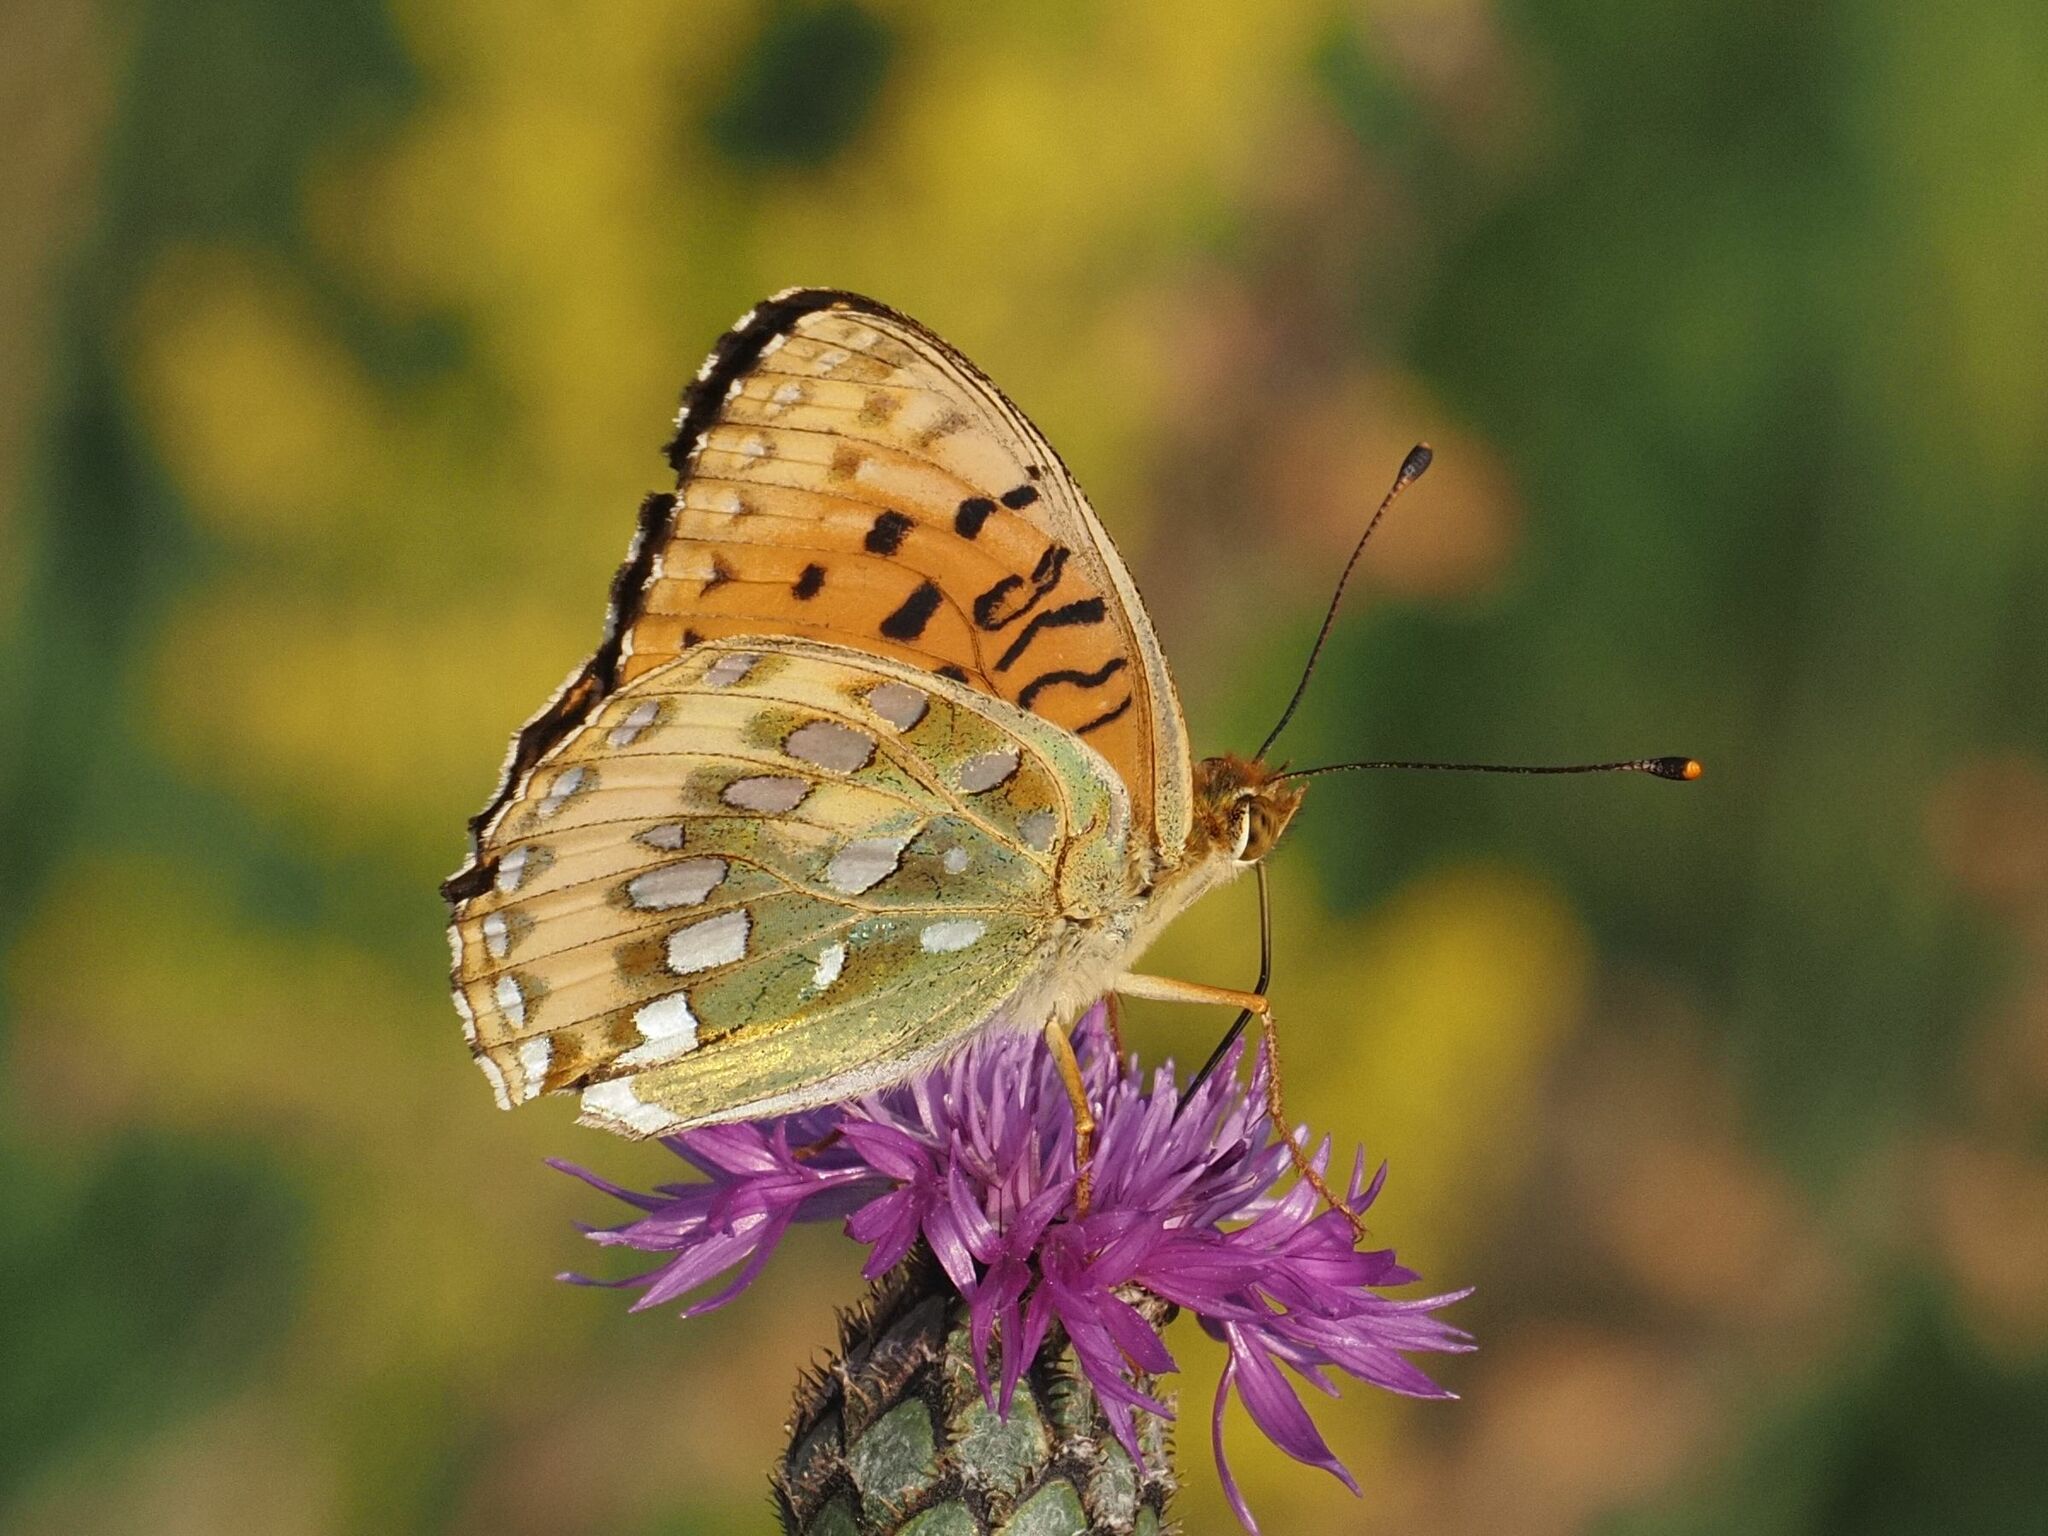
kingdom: Animalia
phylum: Arthropoda
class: Insecta
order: Lepidoptera
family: Nymphalidae
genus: Speyeria
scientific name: Speyeria aglaja
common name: Dark green fritillary
